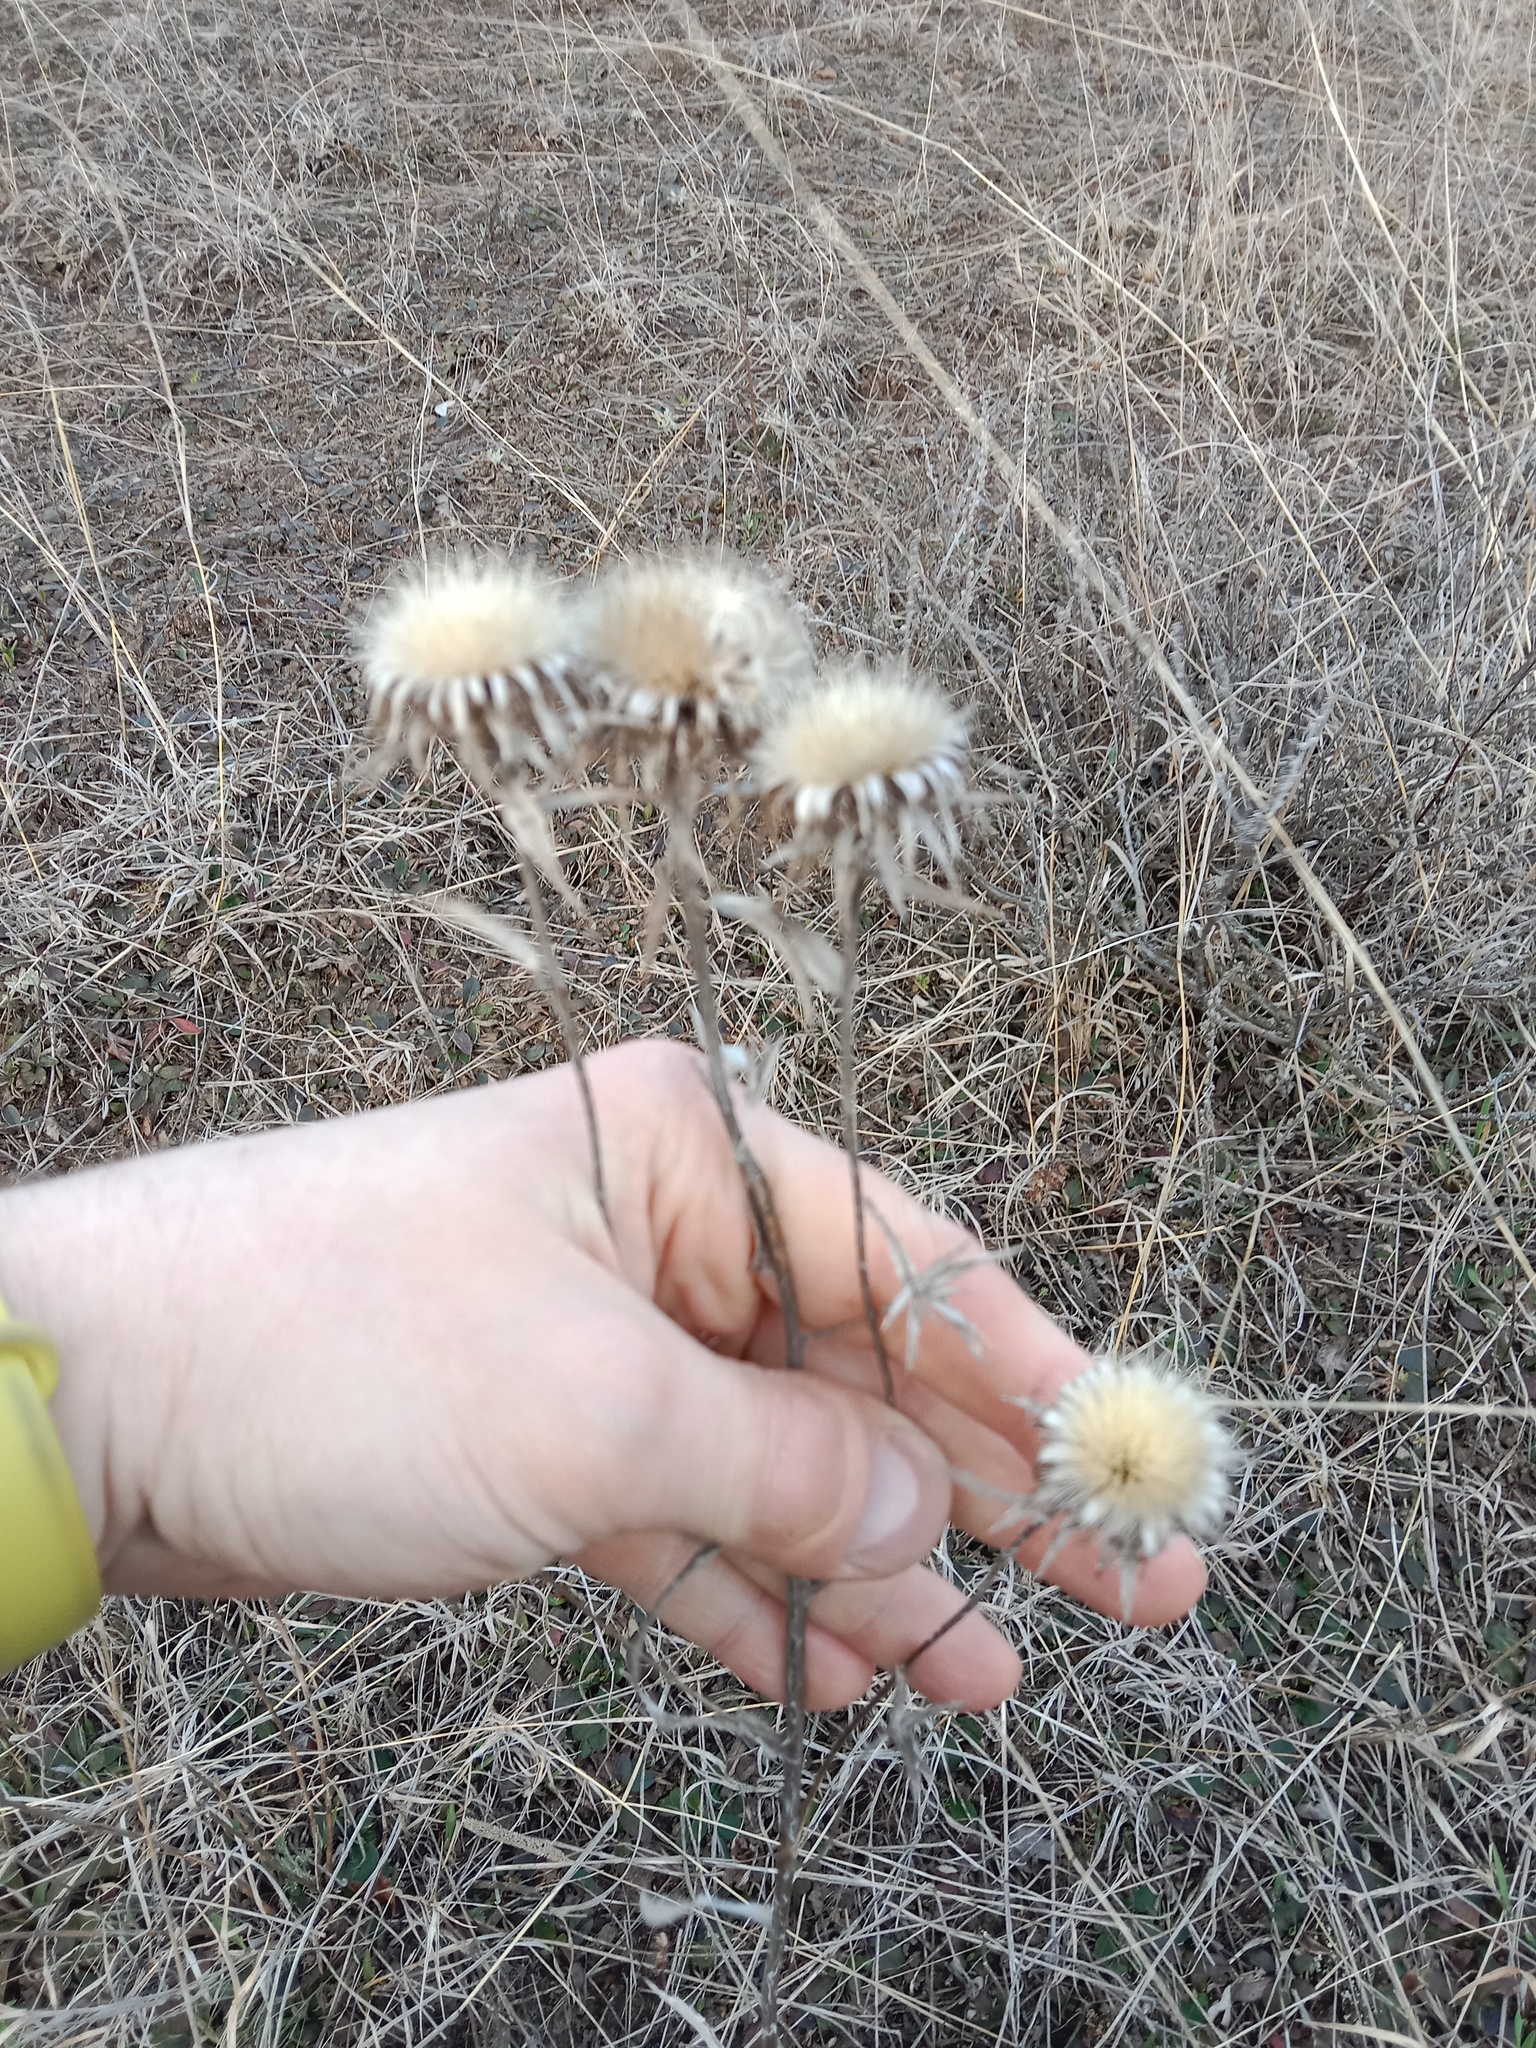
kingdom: Plantae
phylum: Tracheophyta
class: Magnoliopsida
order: Asterales
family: Asteraceae
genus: Carlina
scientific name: Carlina biebersteinii
